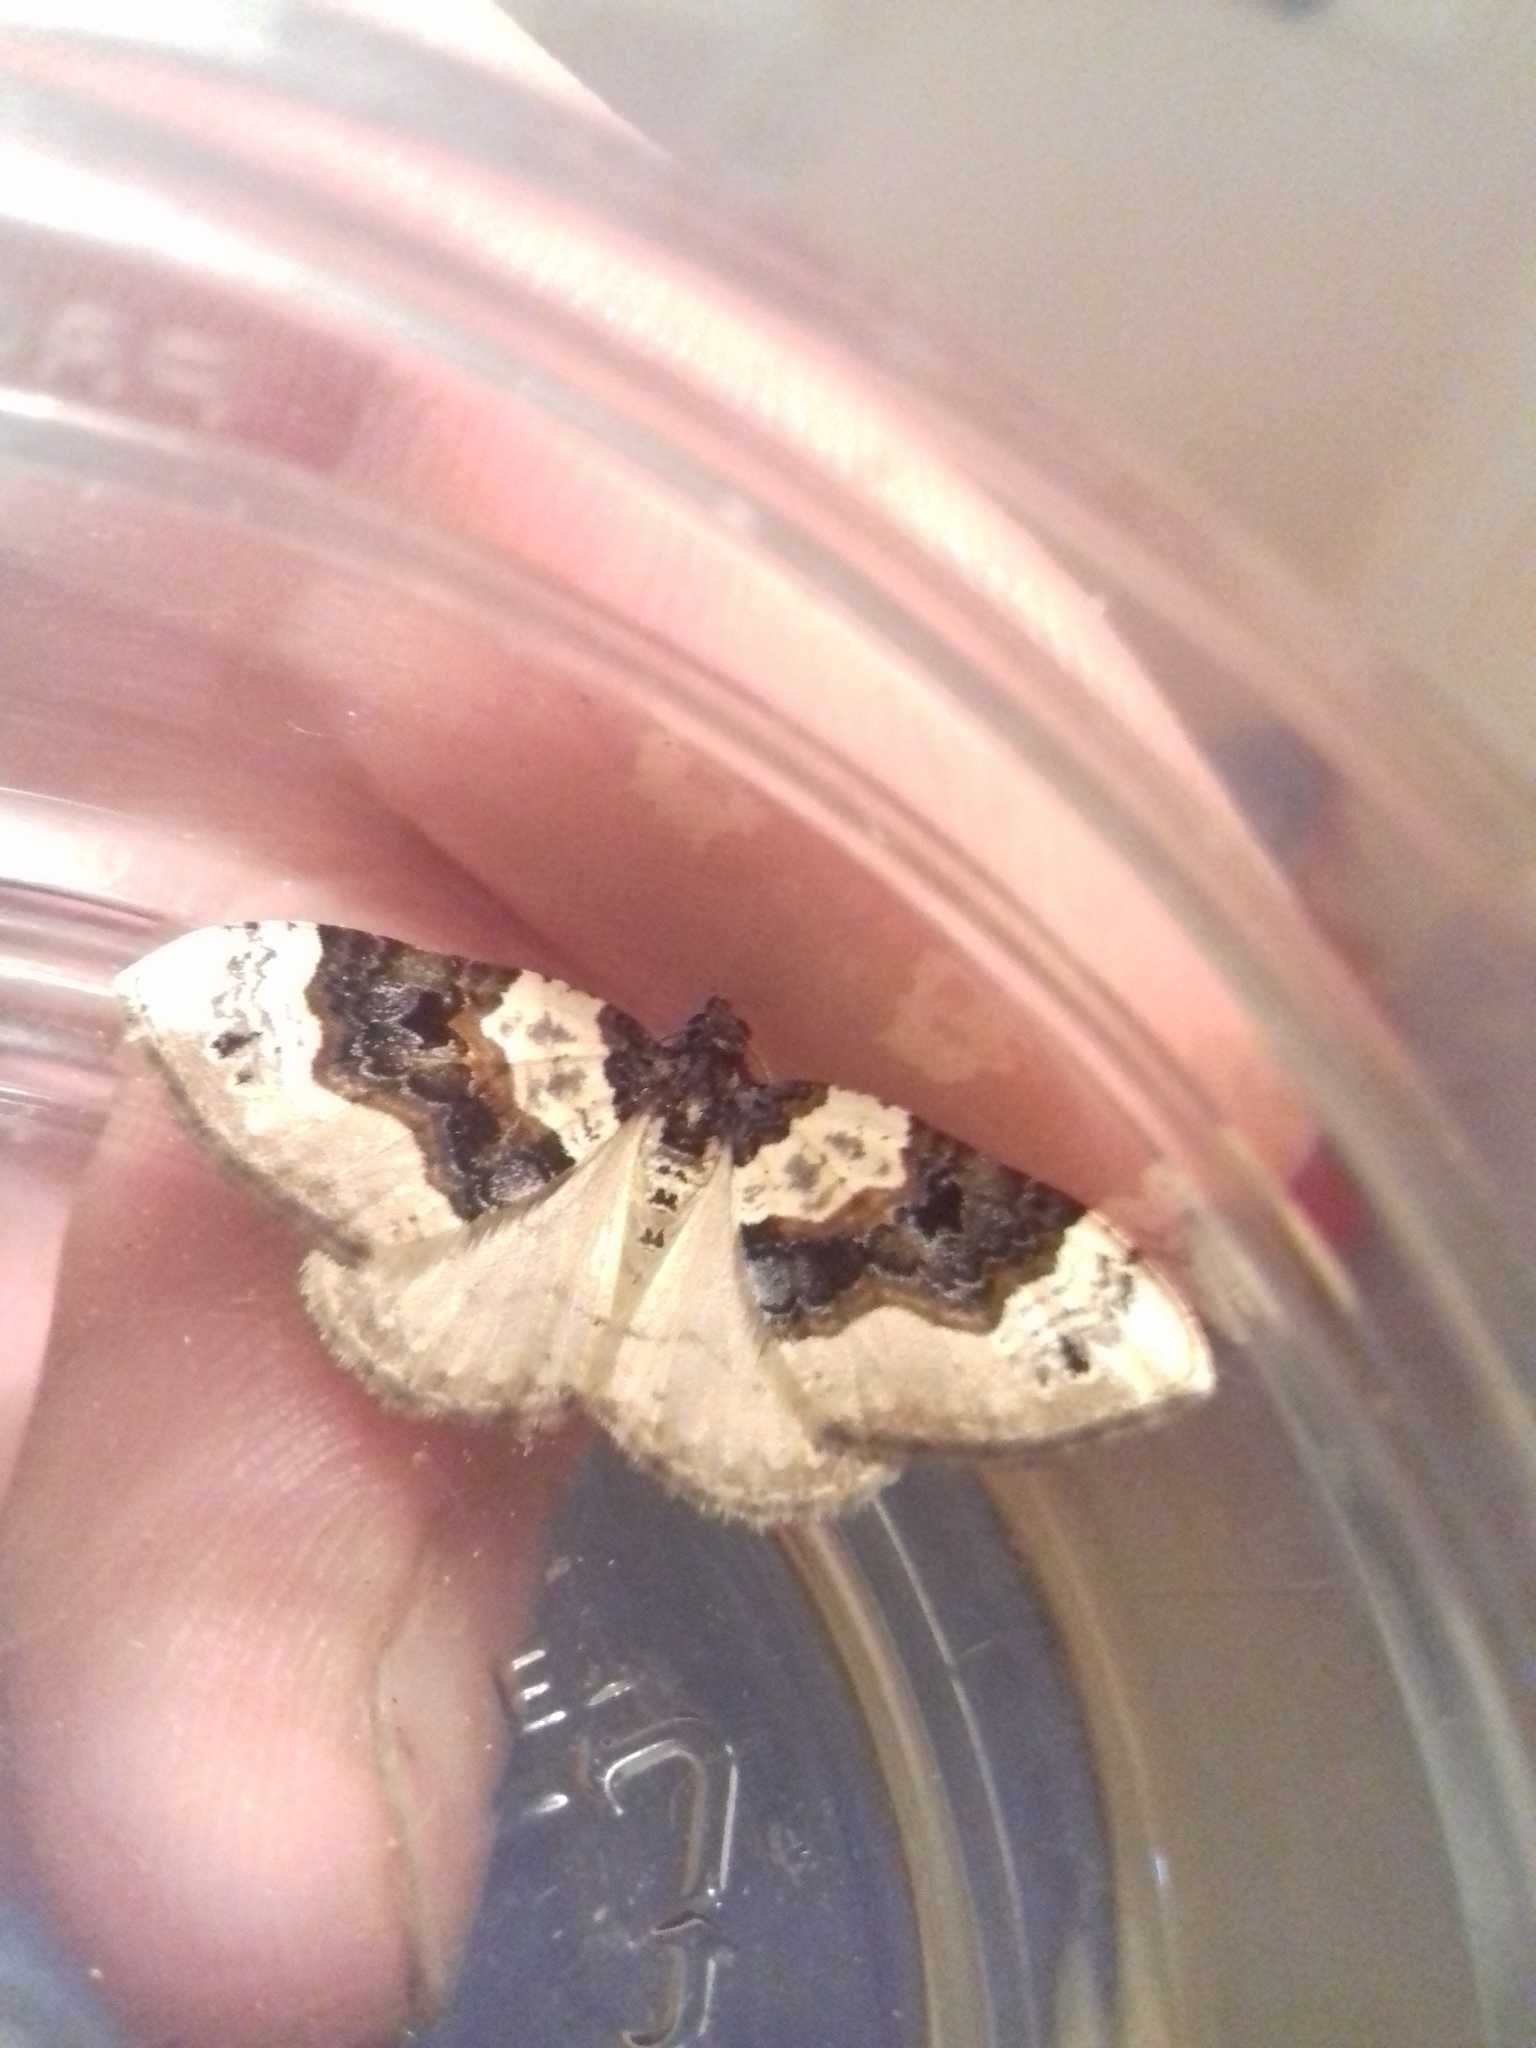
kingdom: Animalia
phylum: Arthropoda
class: Insecta
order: Lepidoptera
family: Geometridae
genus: Cosmorhoe
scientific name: Cosmorhoe ocellata
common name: Purple bar
